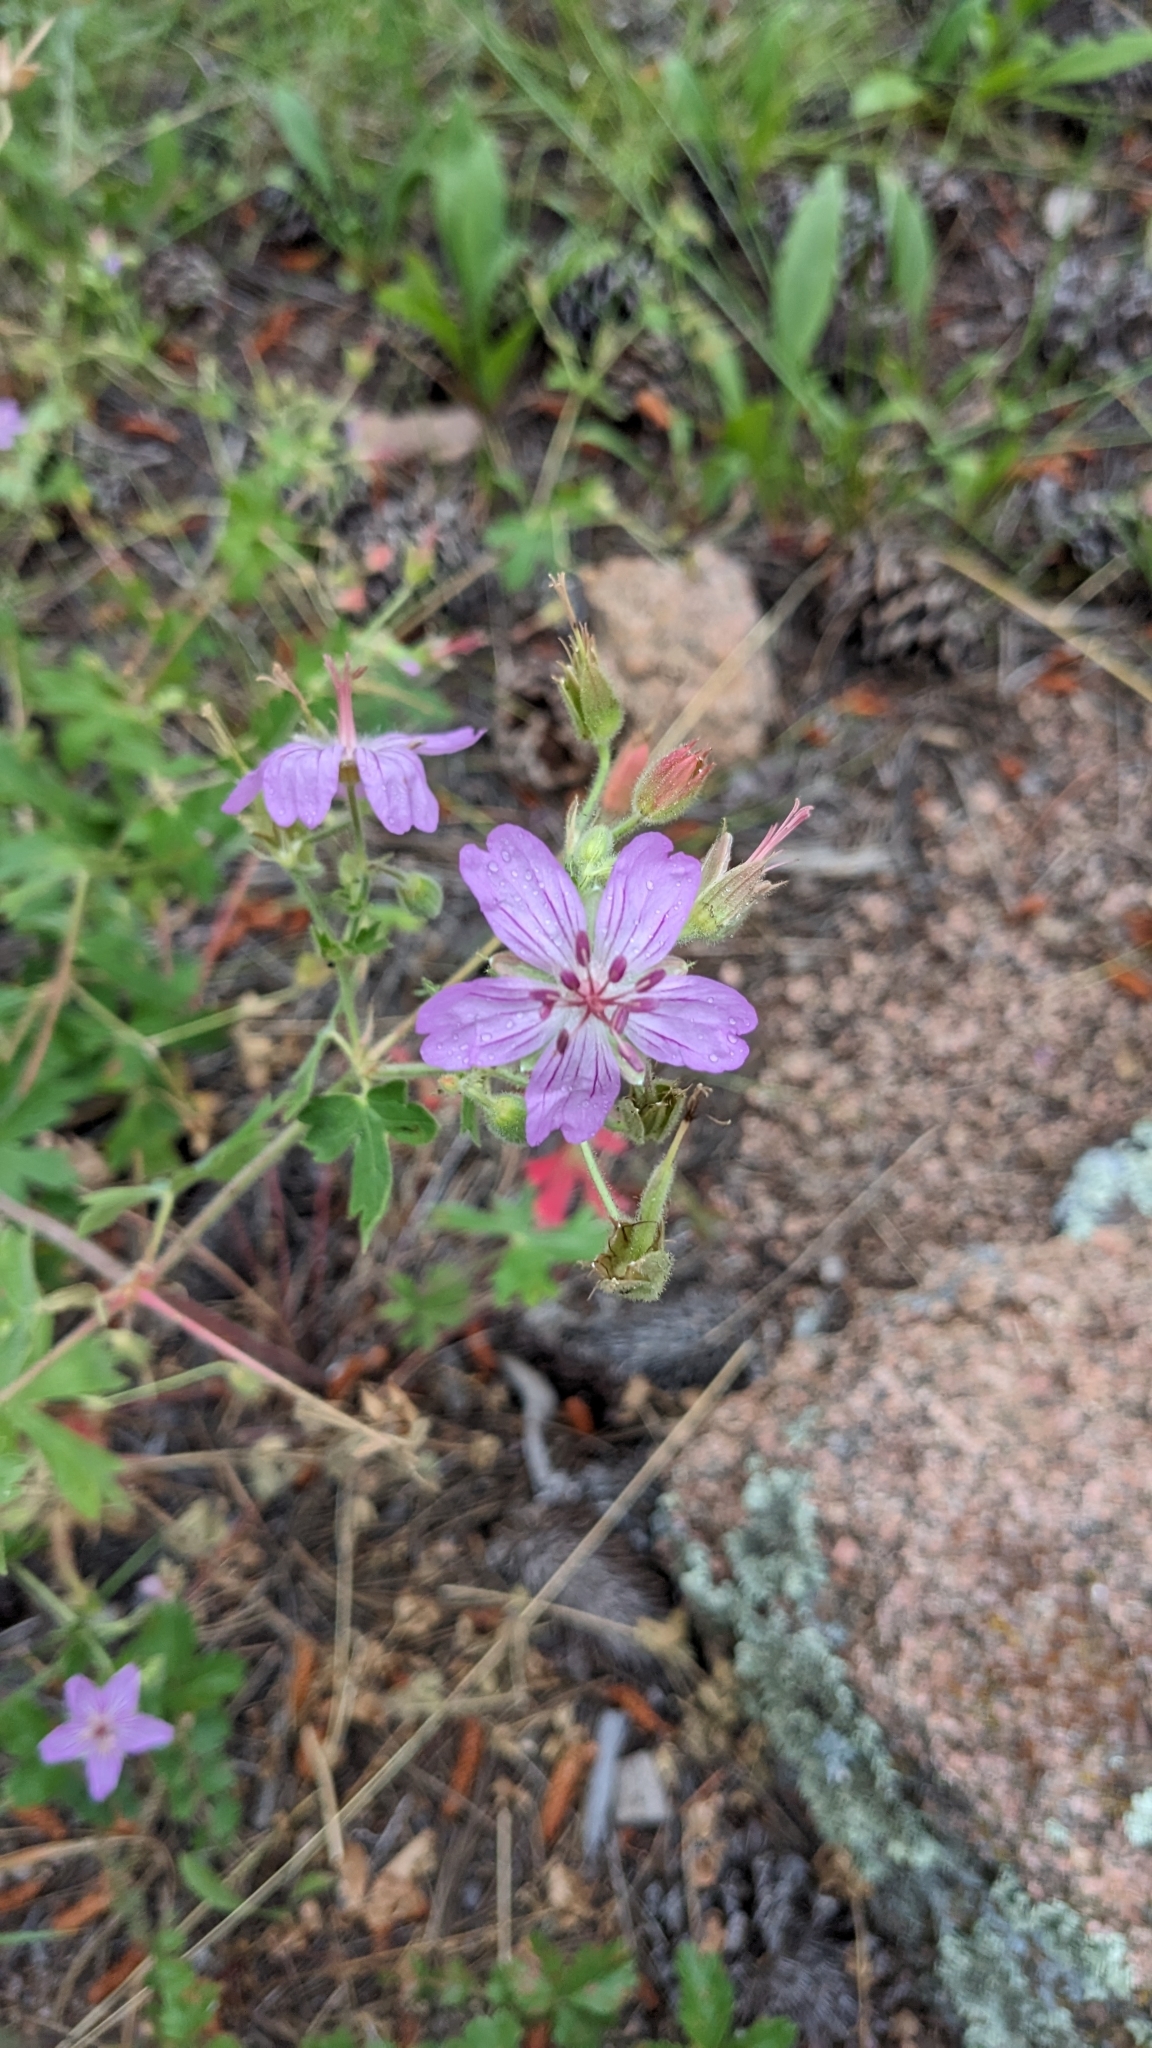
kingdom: Plantae
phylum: Tracheophyta
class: Magnoliopsida
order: Geraniales
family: Geraniaceae
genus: Geranium
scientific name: Geranium caespitosum
